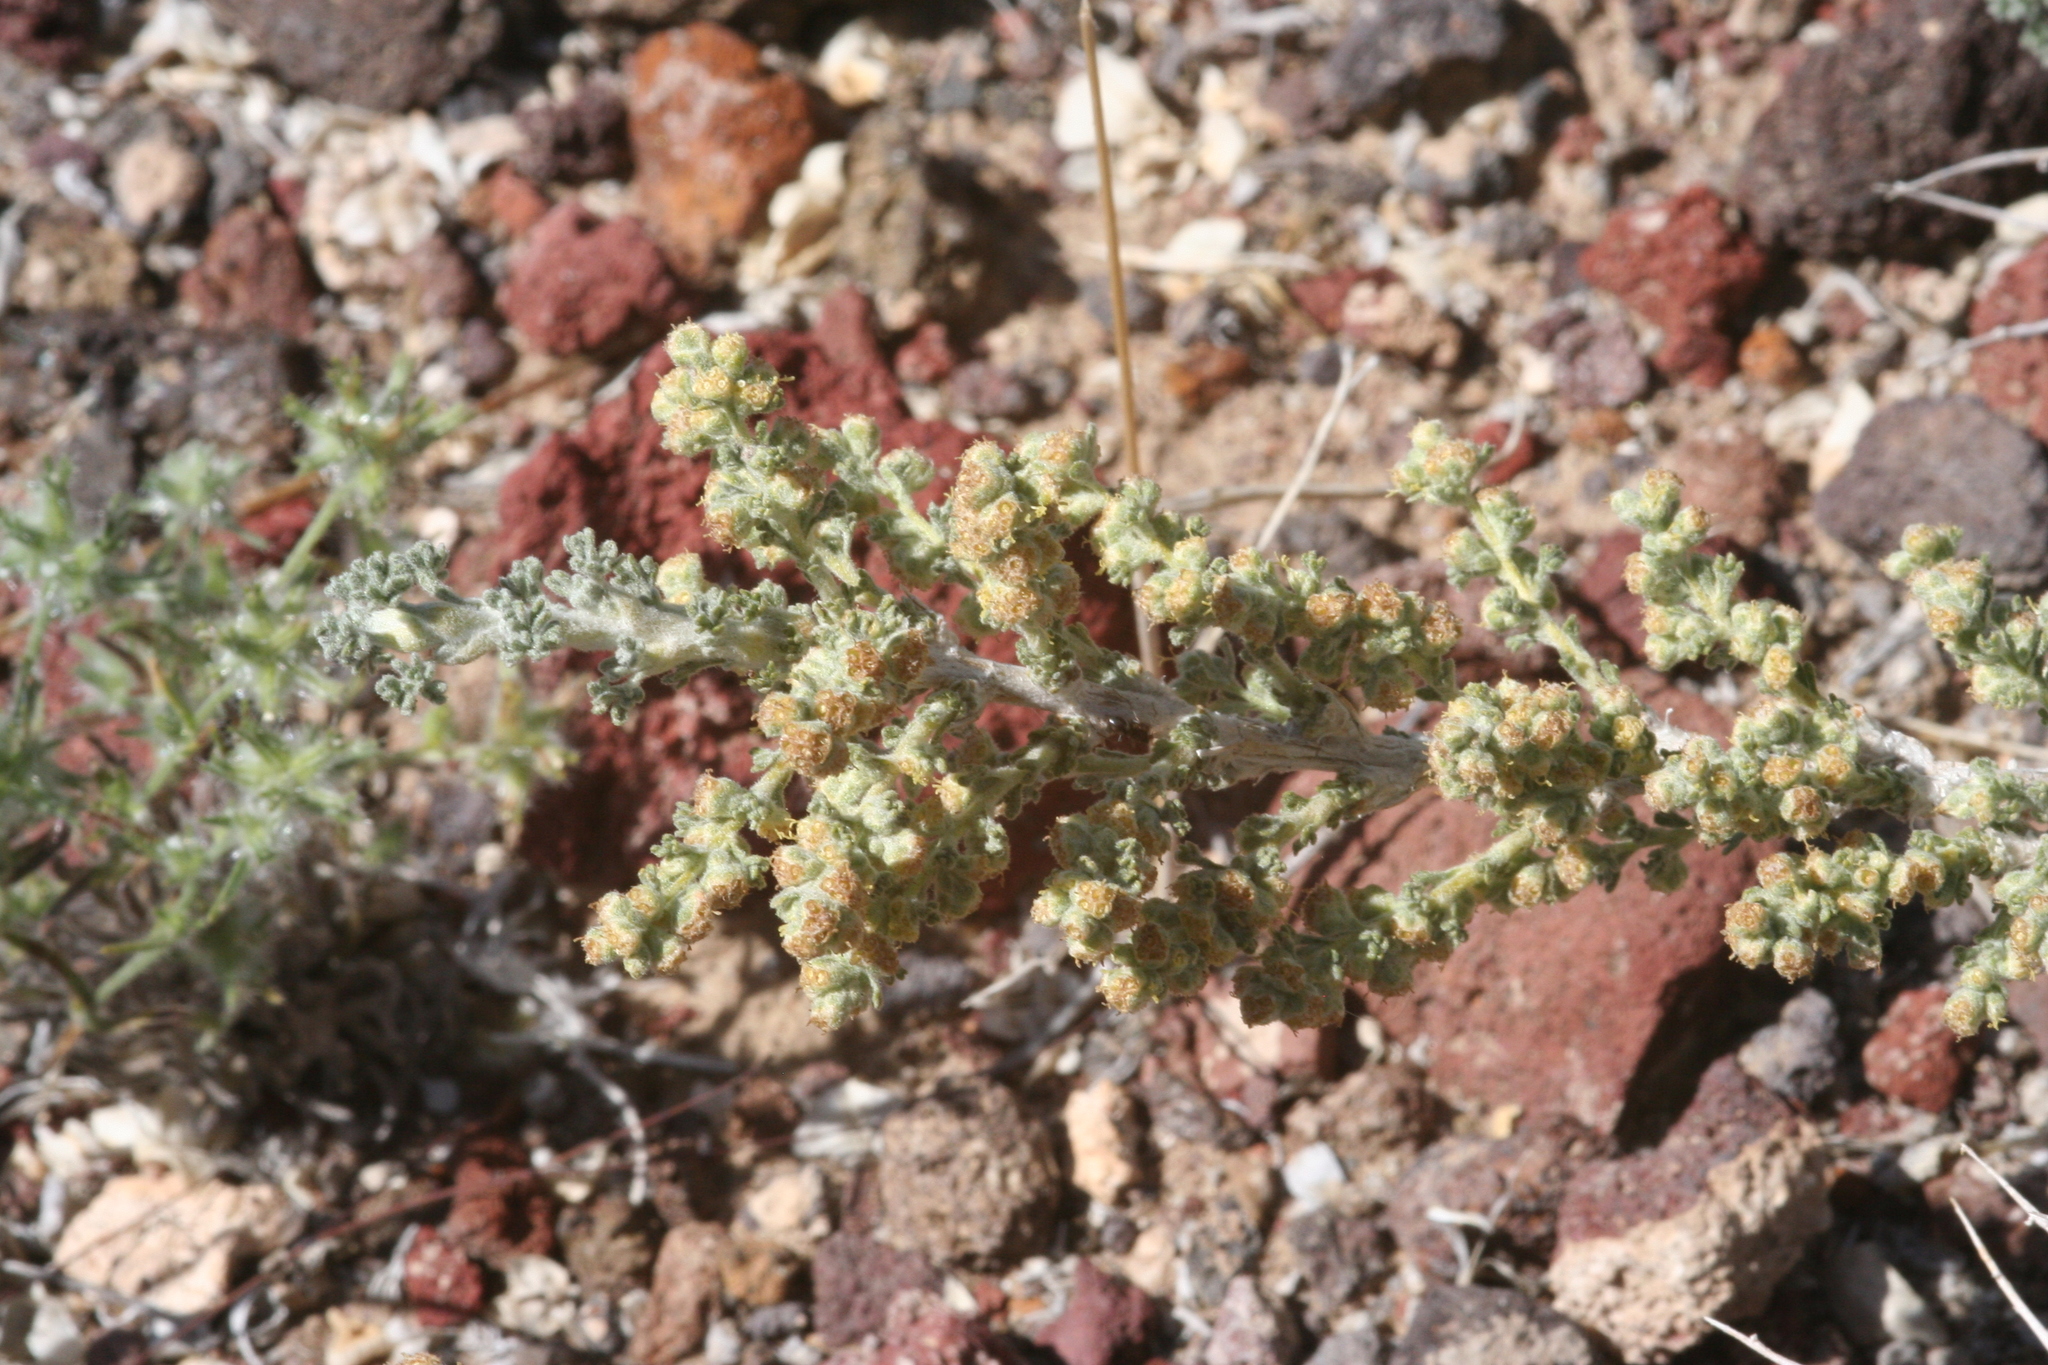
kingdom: Plantae
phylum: Tracheophyta
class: Magnoliopsida
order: Asterales
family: Asteraceae
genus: Artemisia
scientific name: Artemisia spinescens
